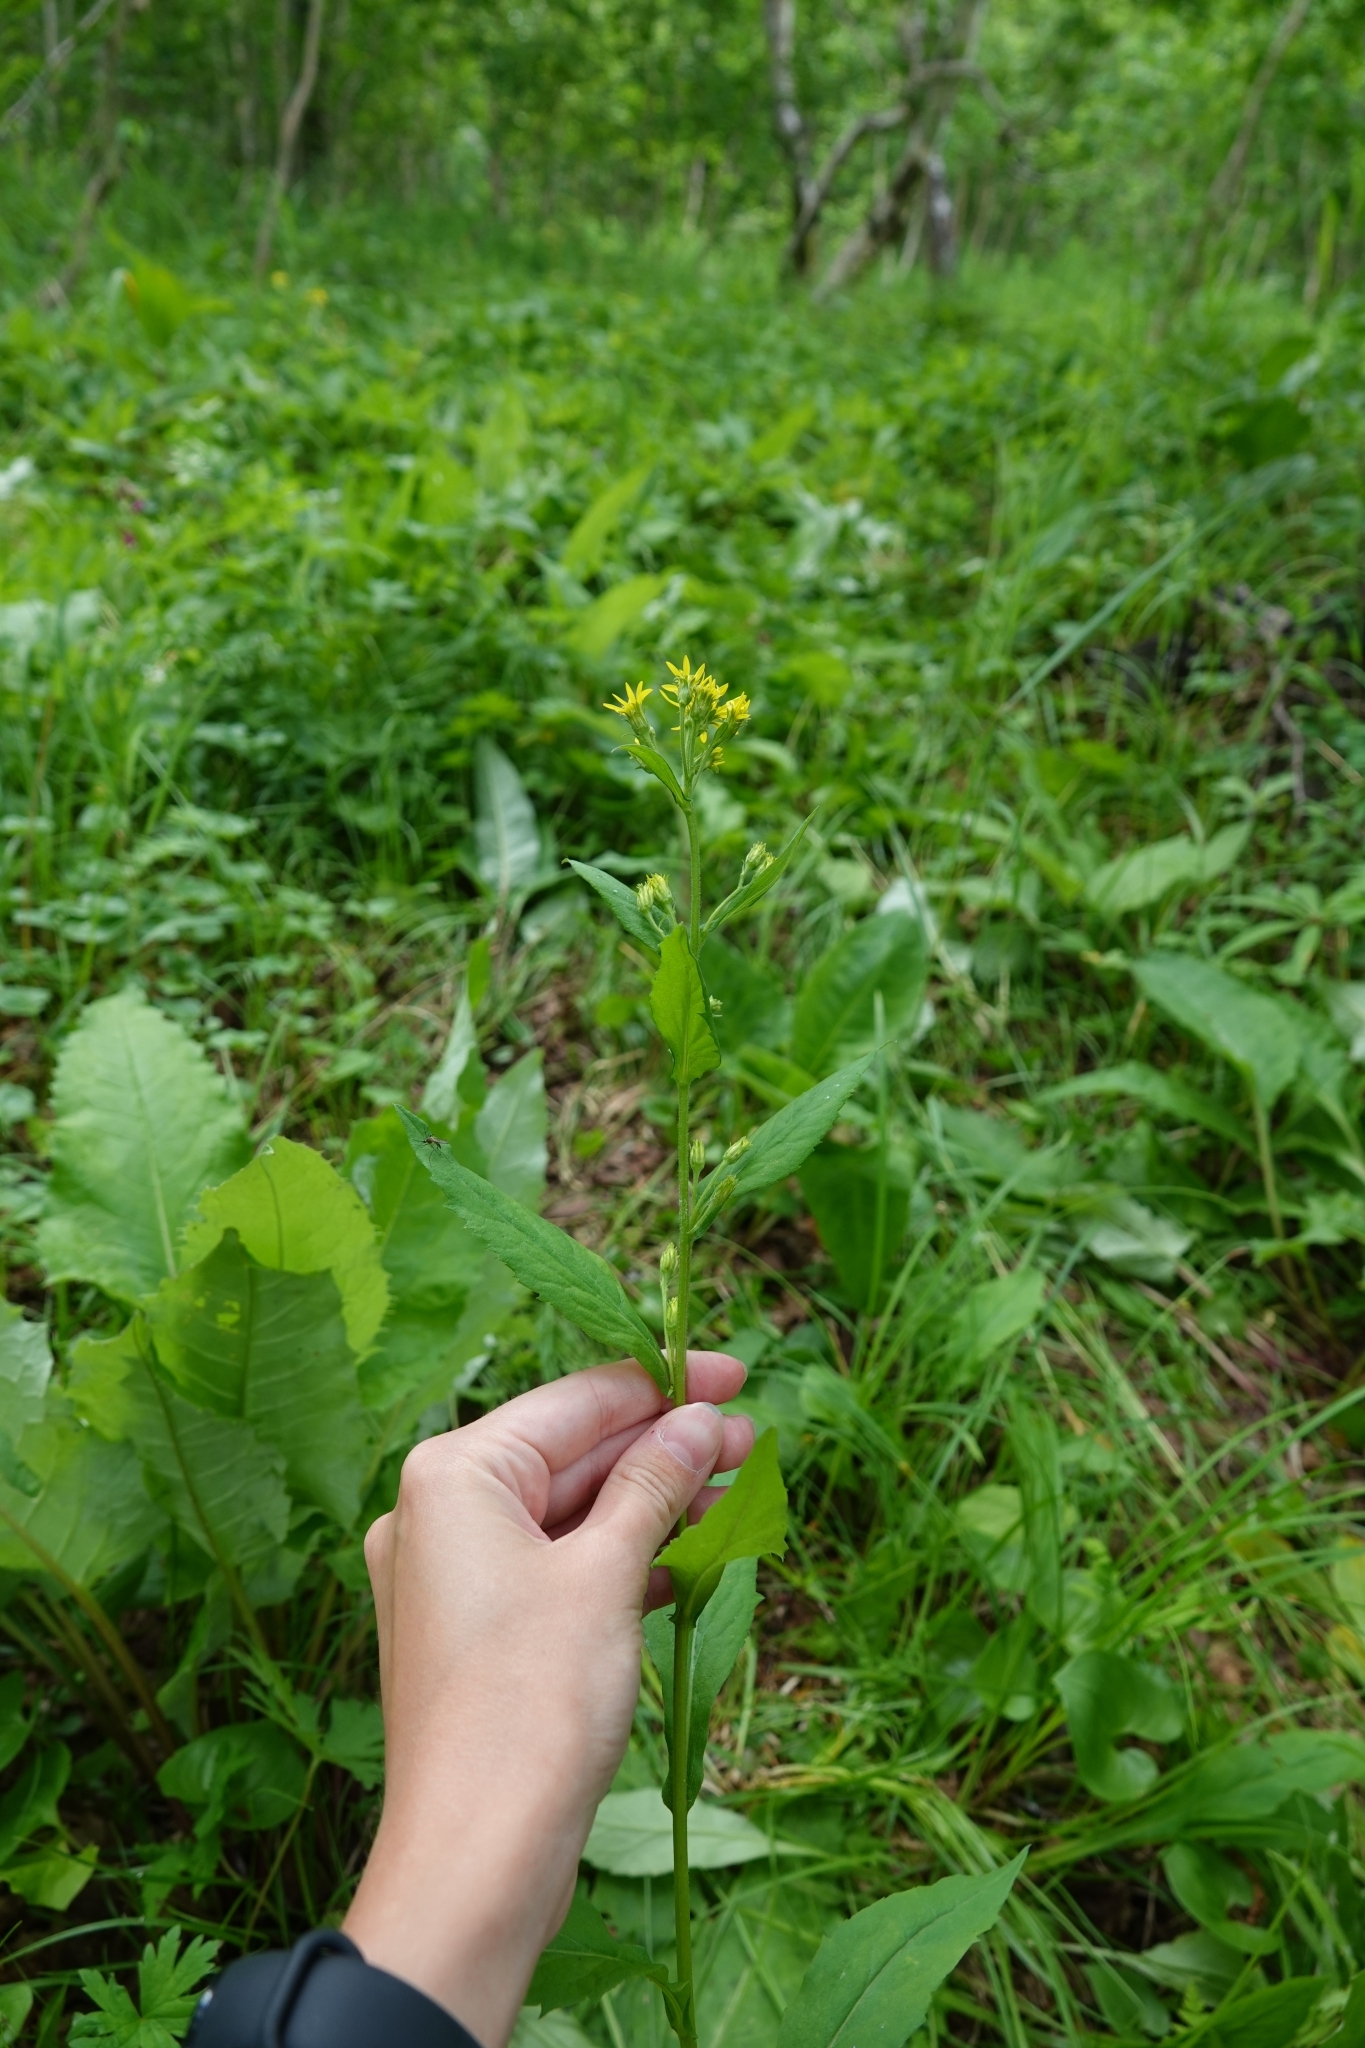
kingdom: Plantae
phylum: Tracheophyta
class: Magnoliopsida
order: Asterales
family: Asteraceae
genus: Solidago
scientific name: Solidago cuprea
